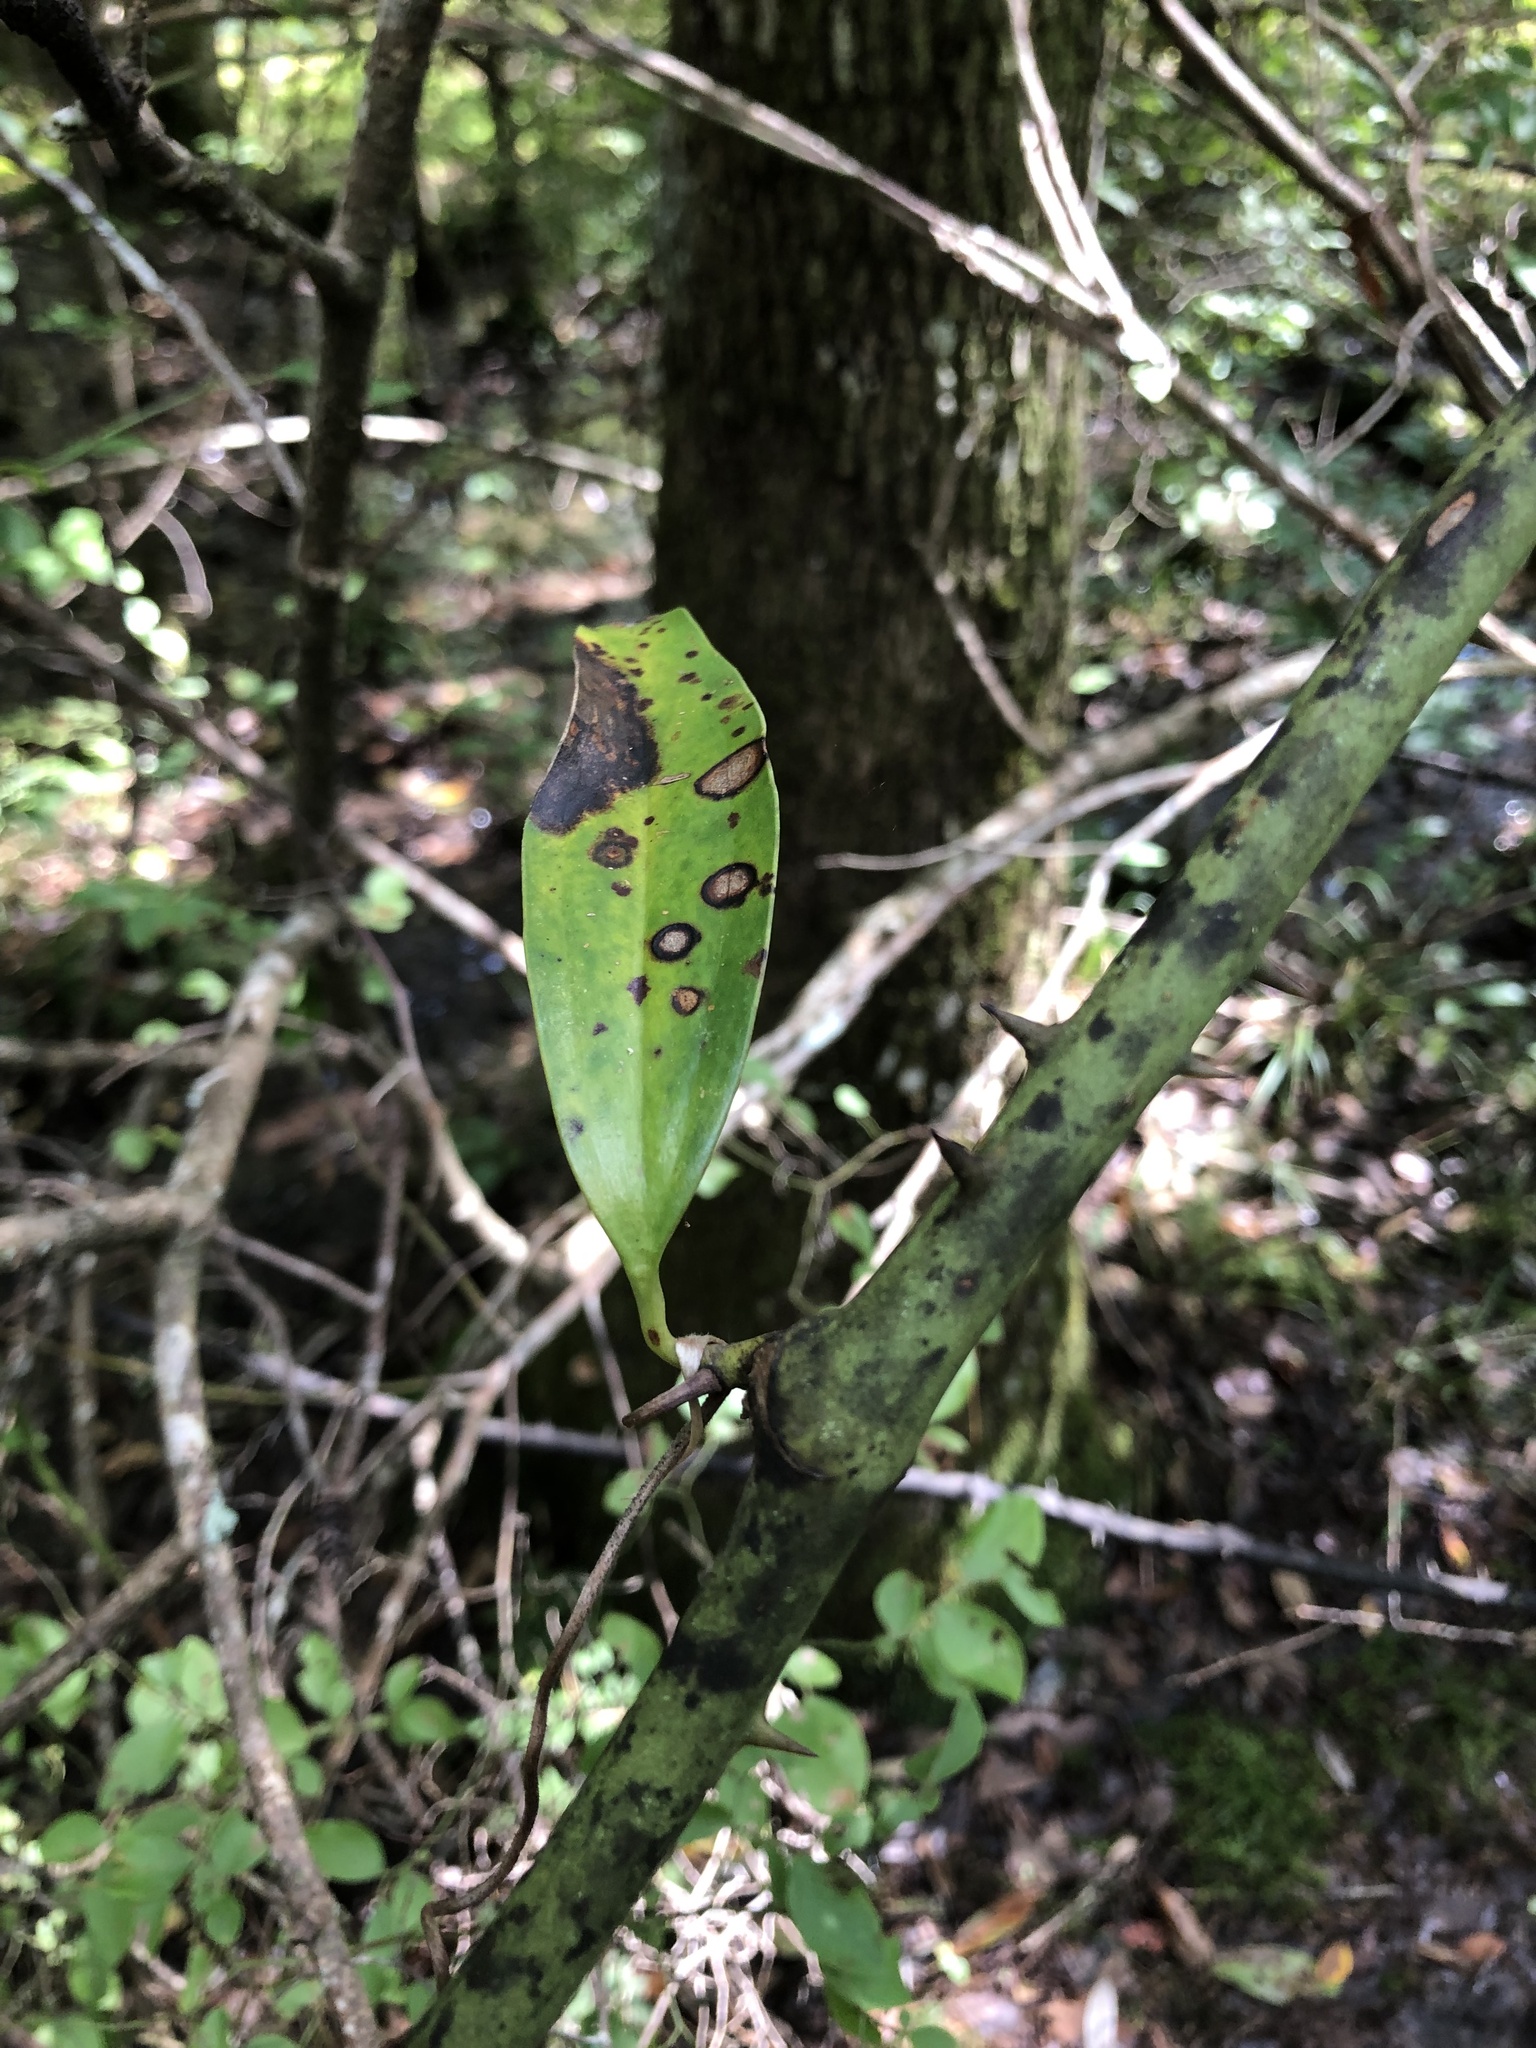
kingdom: Plantae
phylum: Tracheophyta
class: Liliopsida
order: Liliales
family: Smilacaceae
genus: Smilax
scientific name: Smilax laurifolia
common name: Bamboovine
